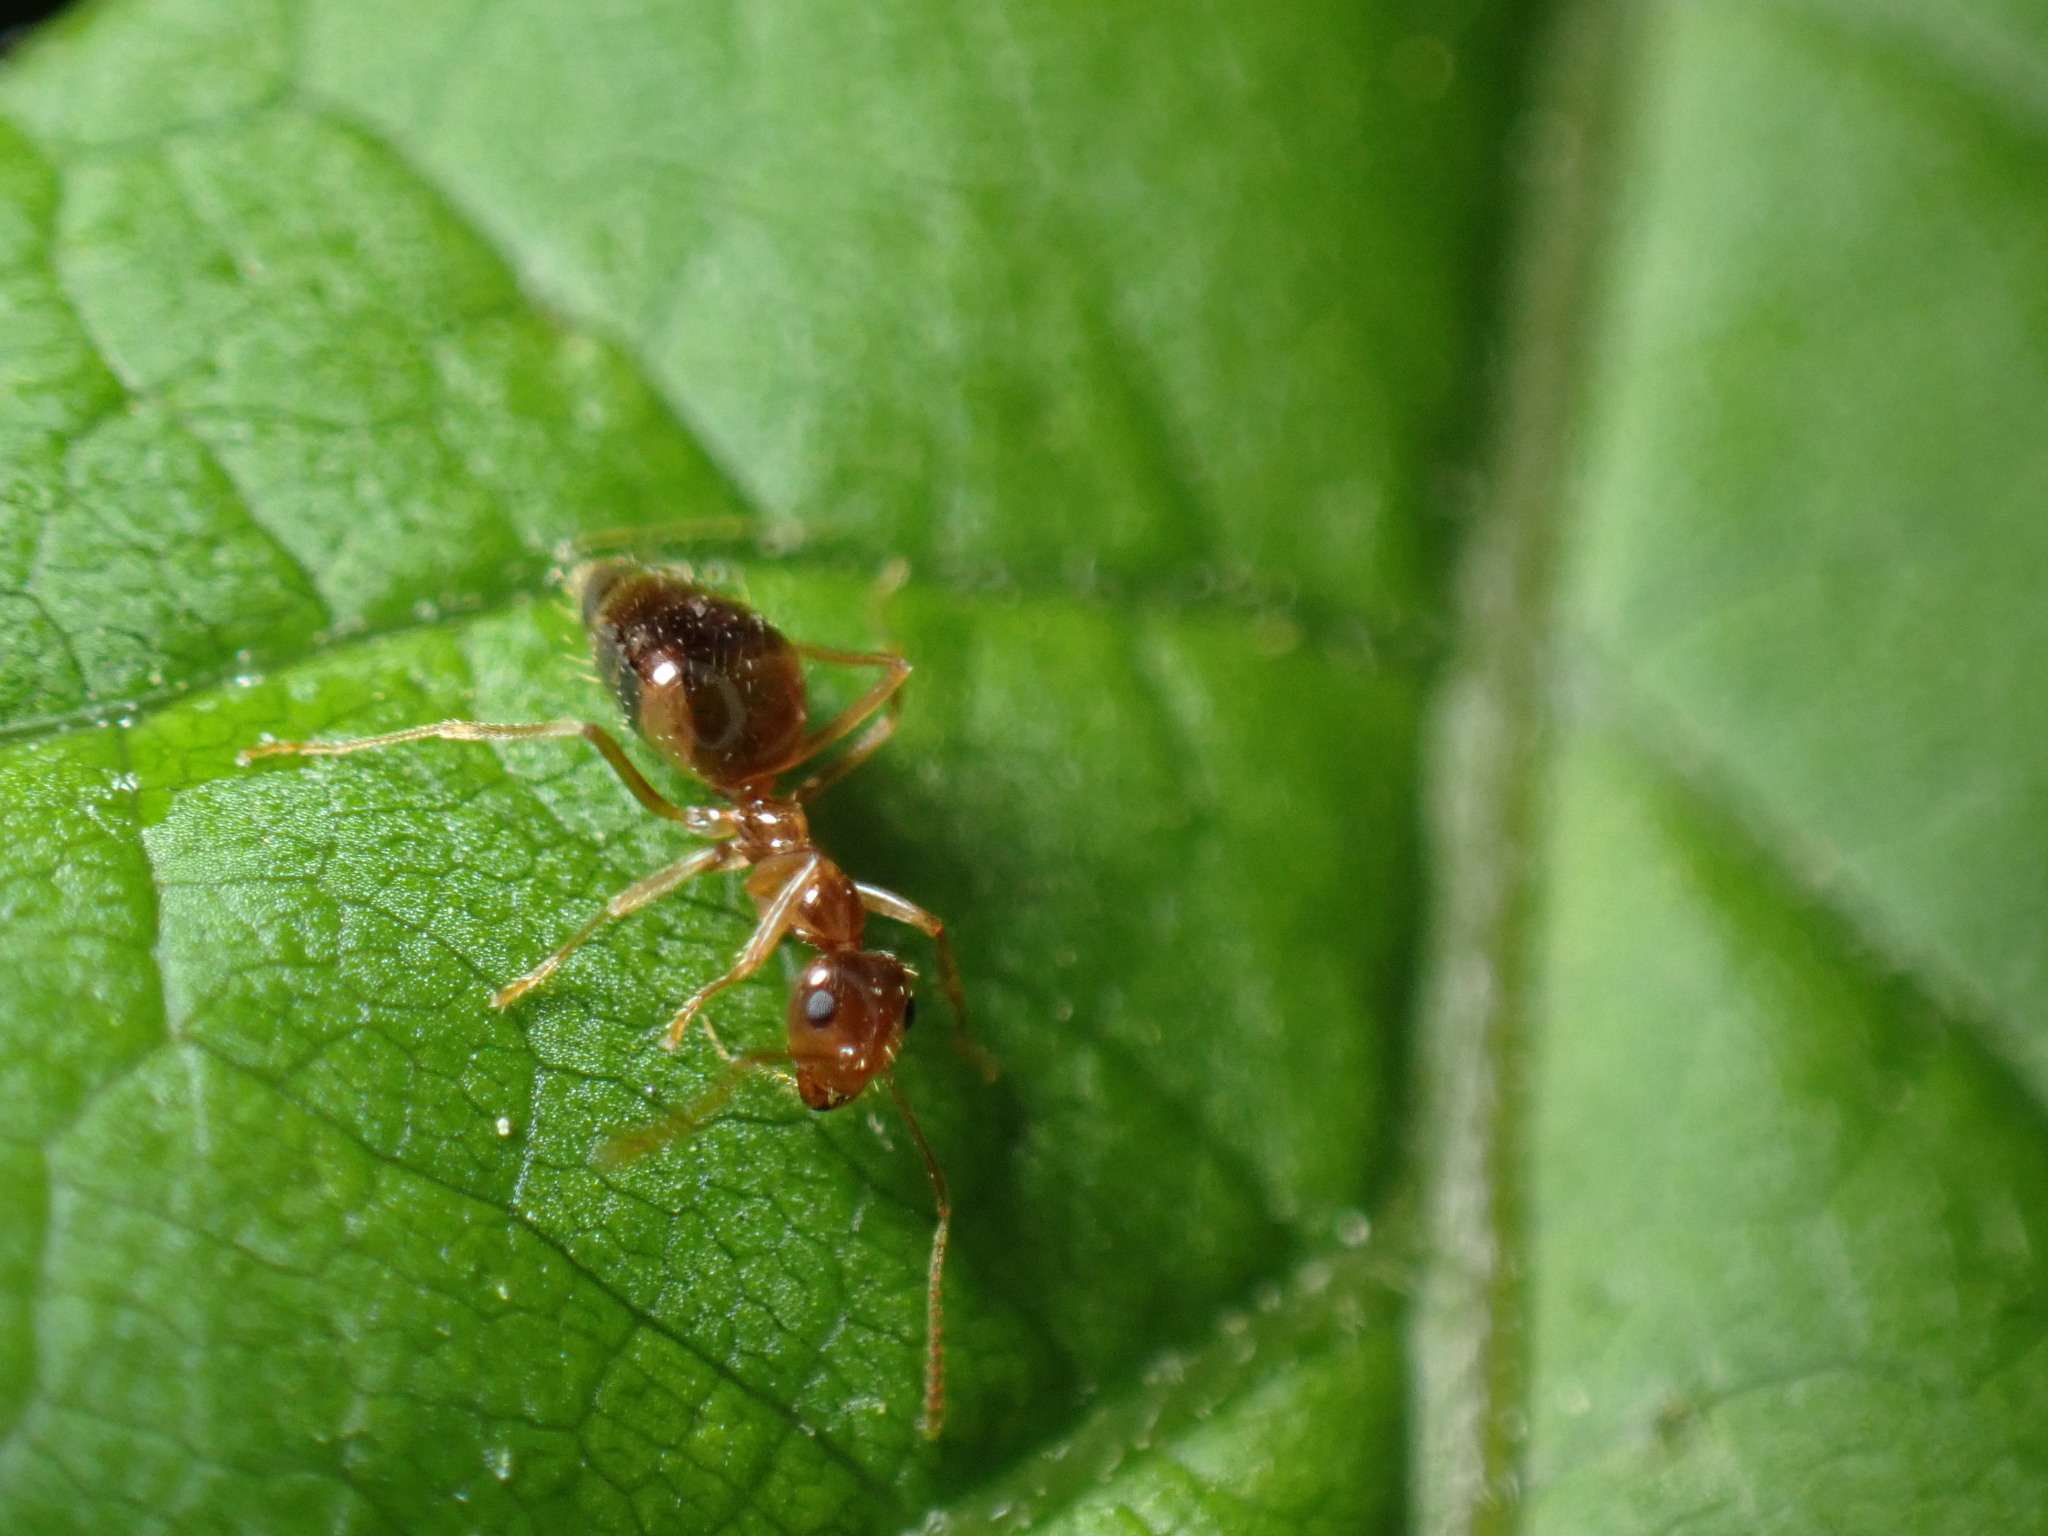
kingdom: Animalia
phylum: Arthropoda
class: Insecta
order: Hymenoptera
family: Formicidae
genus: Prenolepis
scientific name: Prenolepis imparis
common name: Small honey ant
